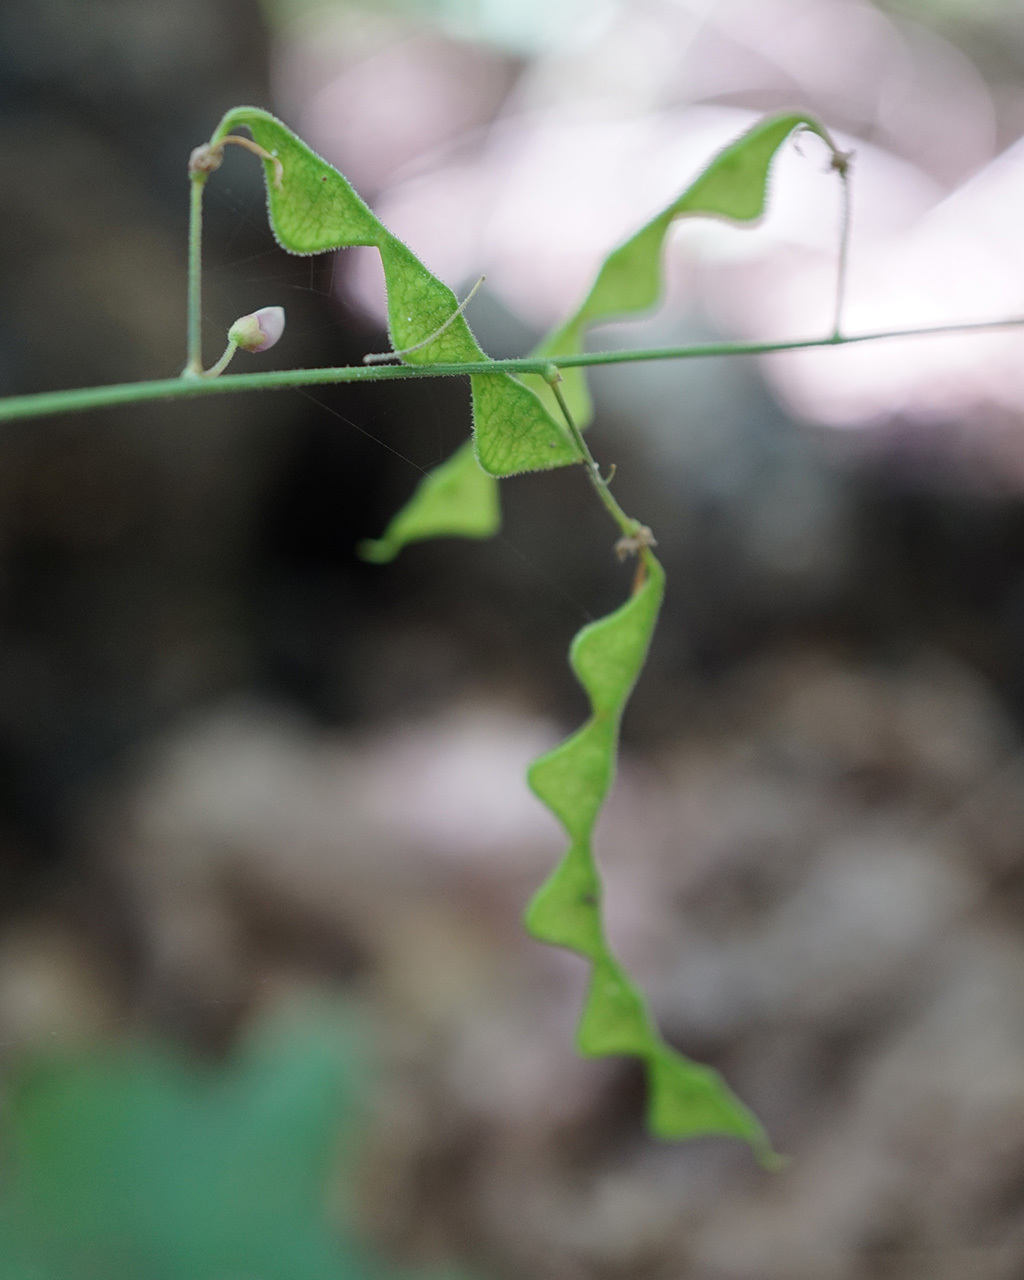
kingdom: Plantae
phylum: Tracheophyta
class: Magnoliopsida
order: Fabales
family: Fabaceae
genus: Desmodium
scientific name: Desmodium perplexum
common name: Perplexed tick trefoil
